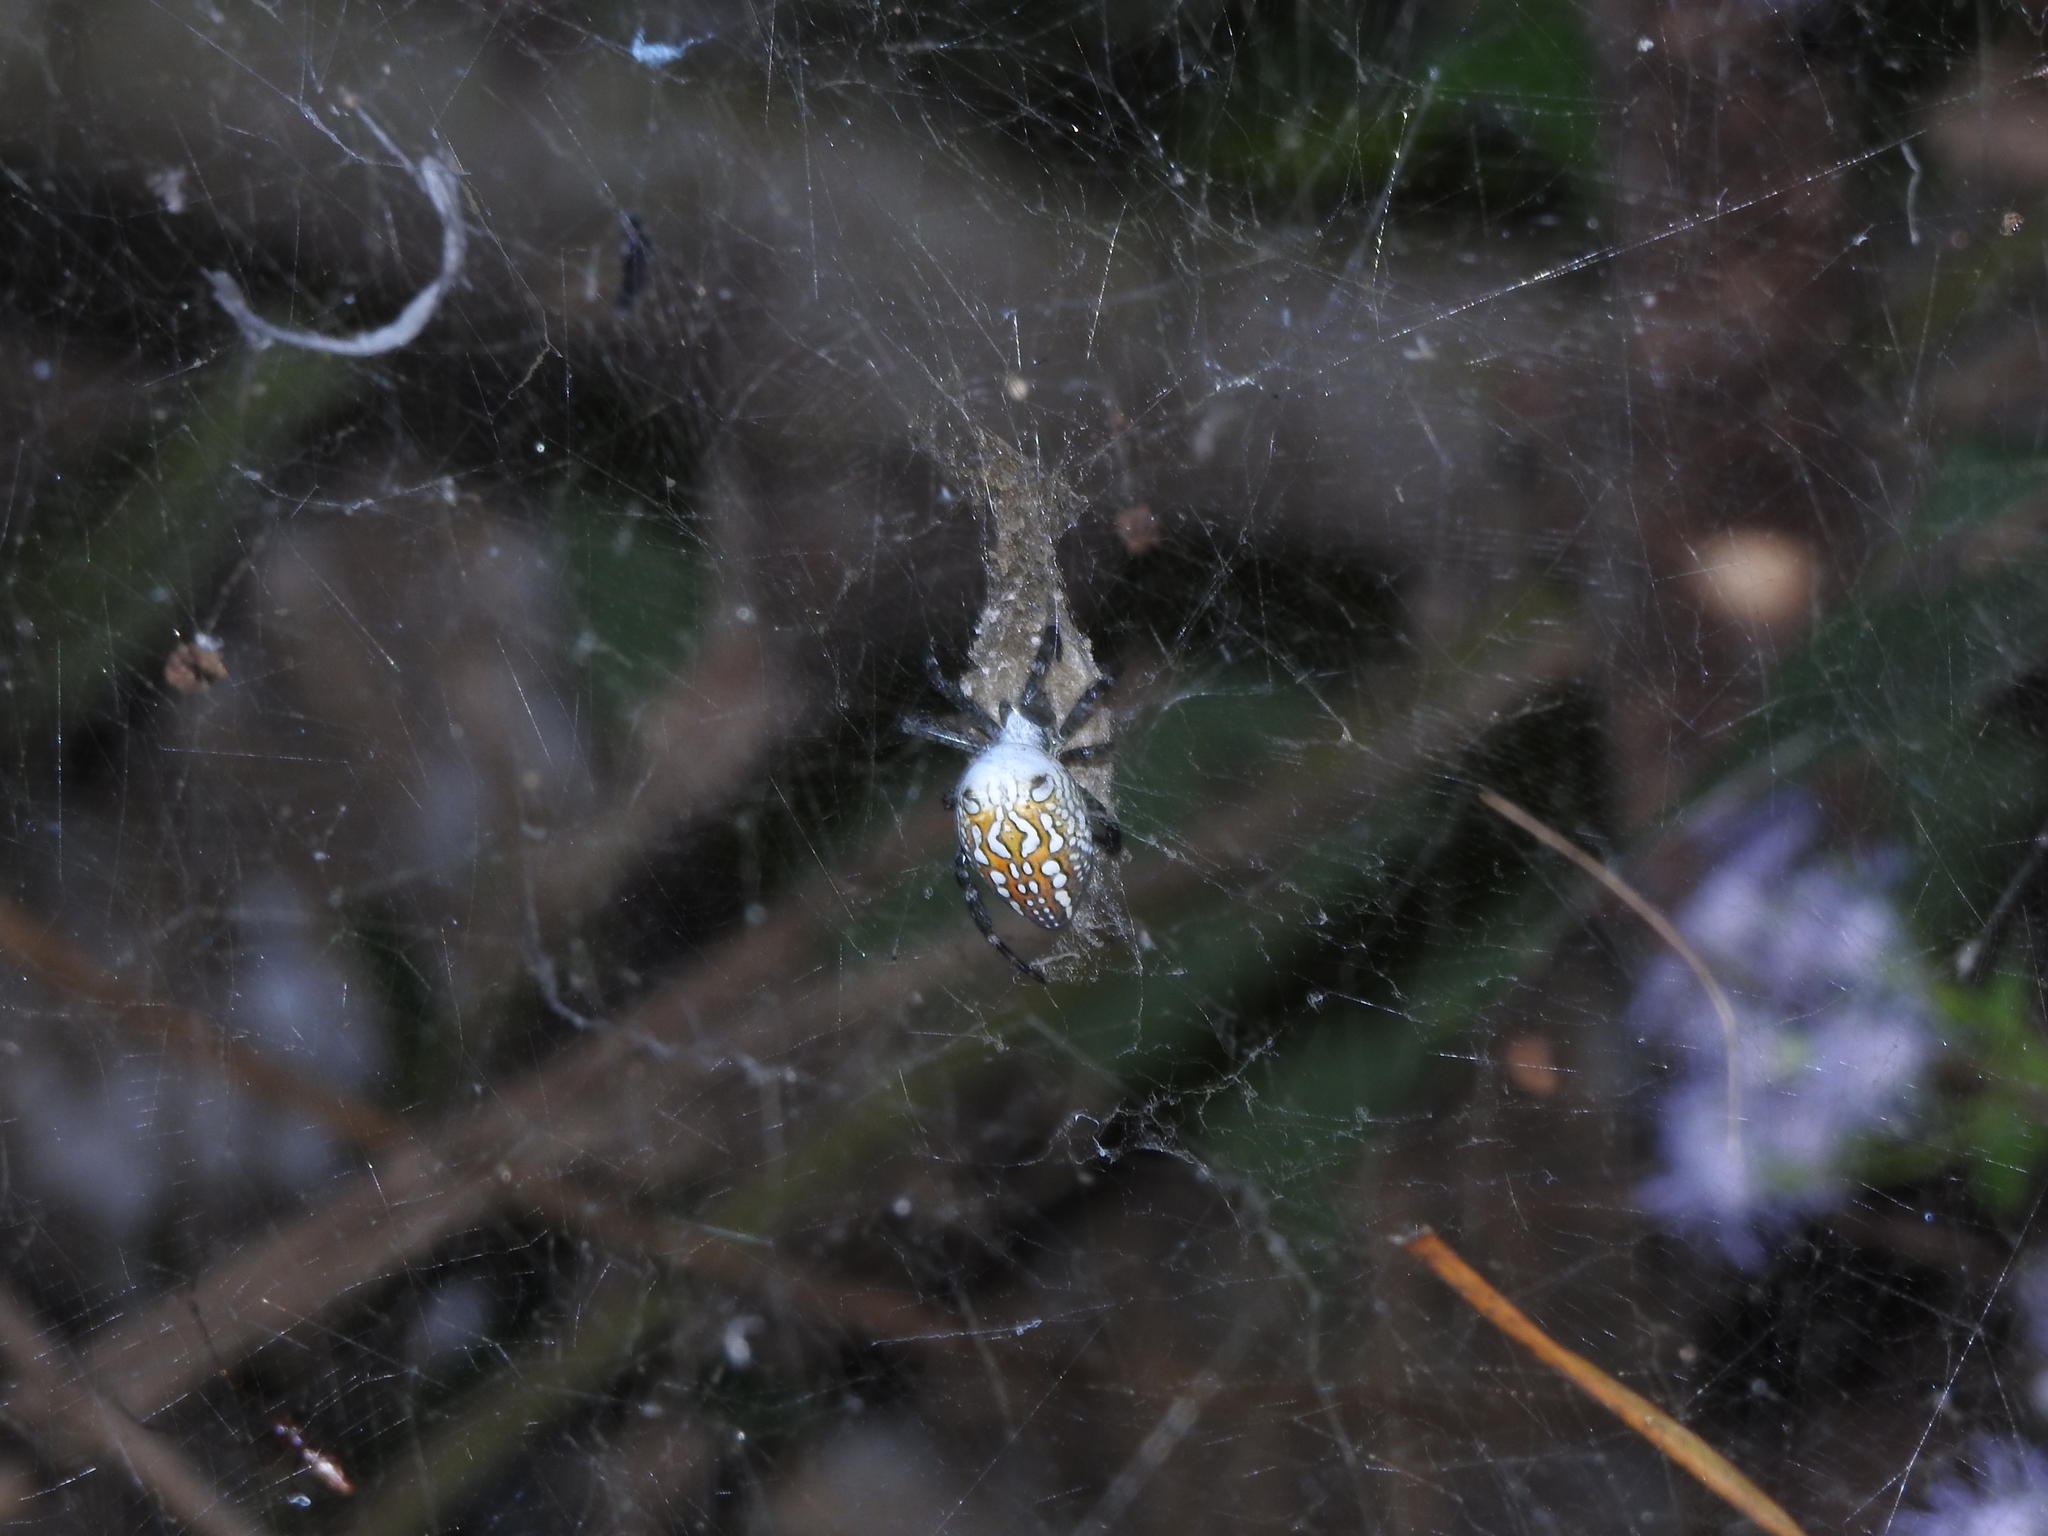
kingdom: Chromista
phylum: Ochrophyta
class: Dictyochophyceae
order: Pedinellales
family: Cyrtophoraceae
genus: Cyrtophora
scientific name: Cyrtophora moluccensis
